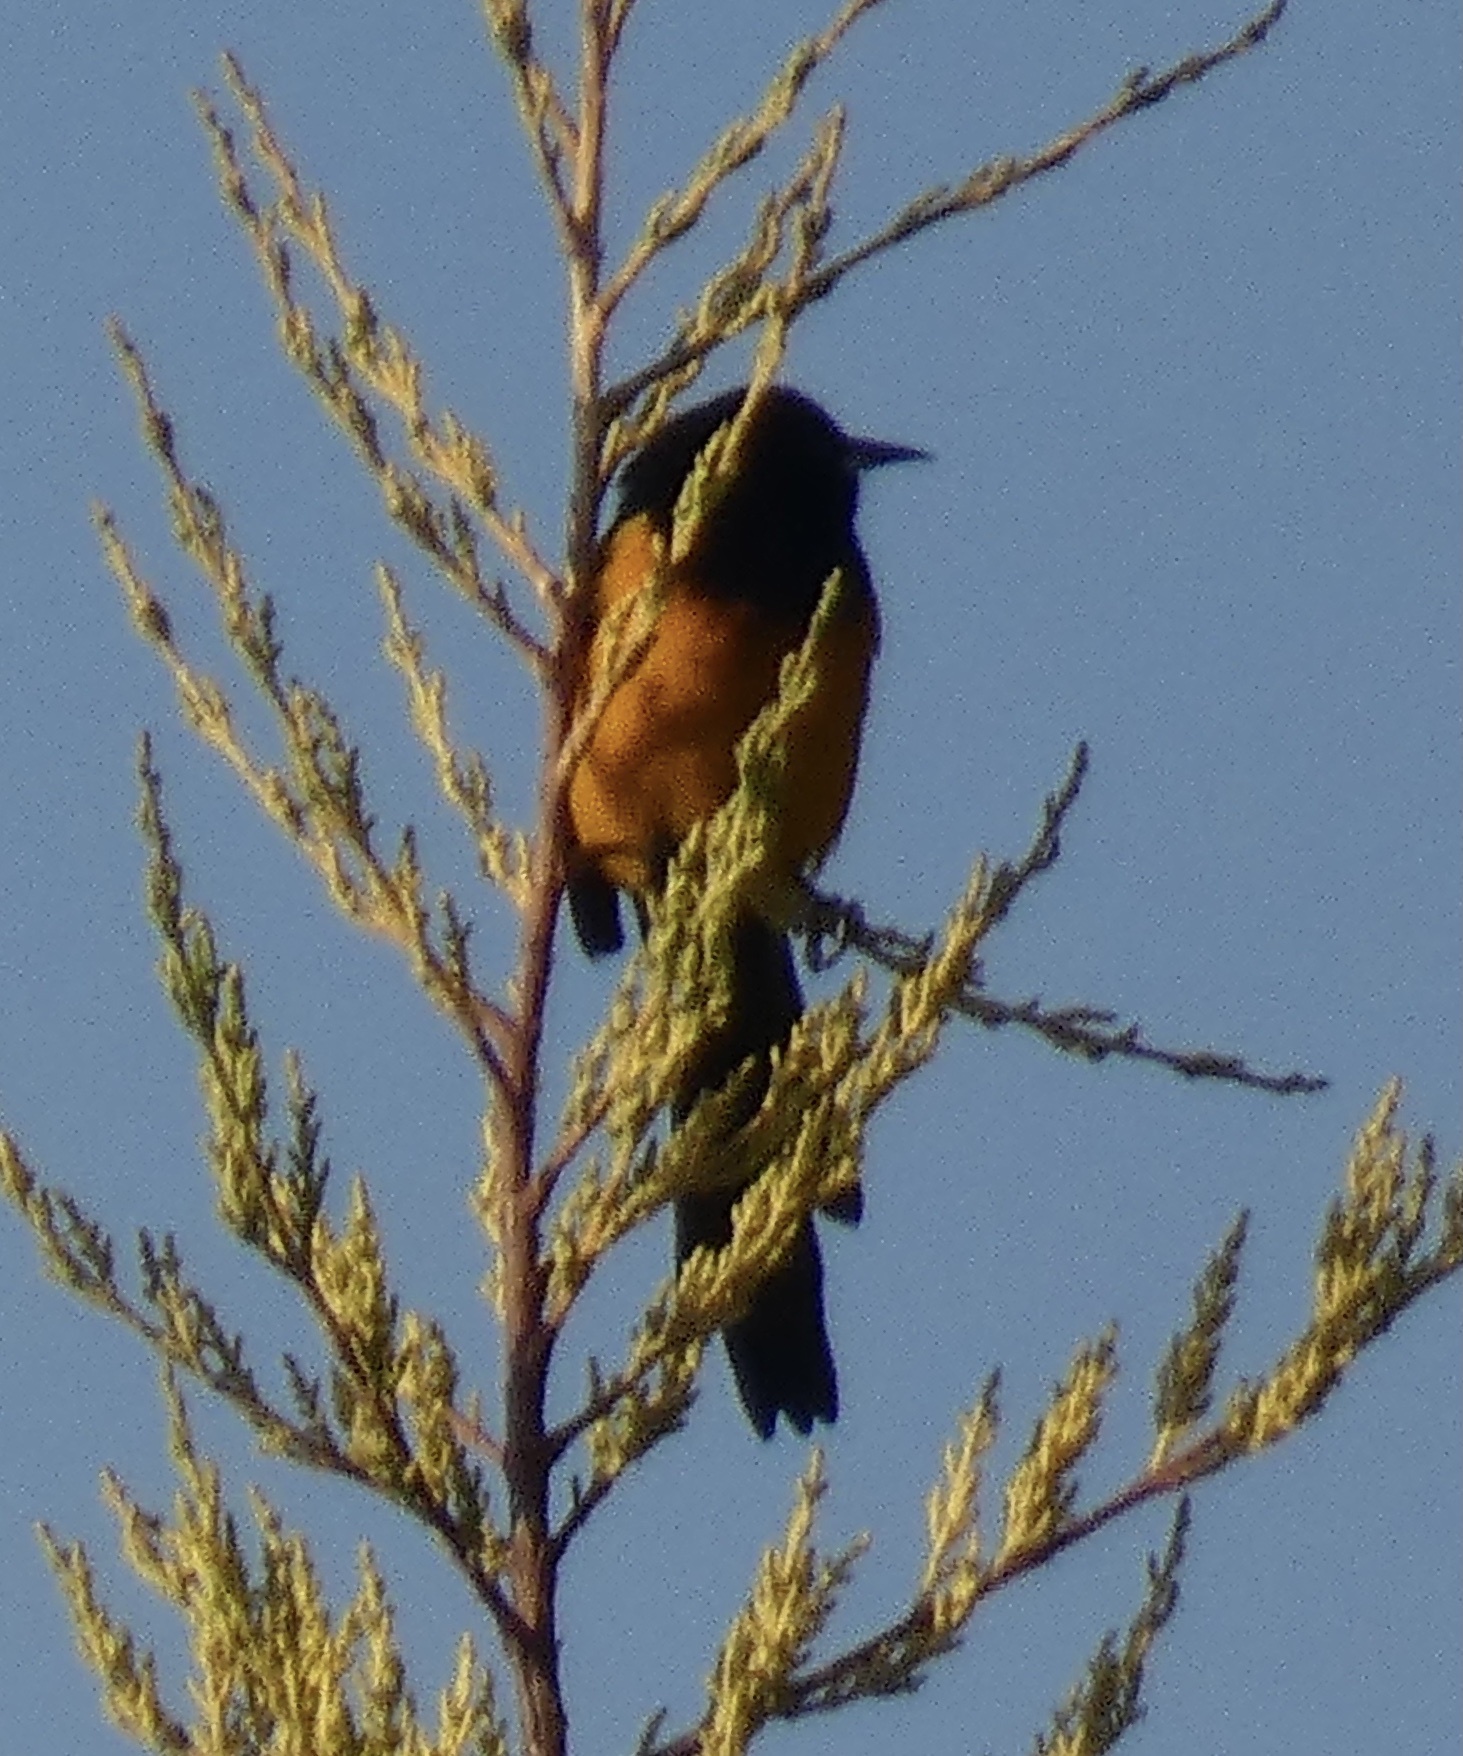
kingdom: Animalia
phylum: Chordata
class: Aves
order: Passeriformes
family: Icteridae
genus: Icterus
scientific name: Icterus wagleri
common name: Black-vented oriole
